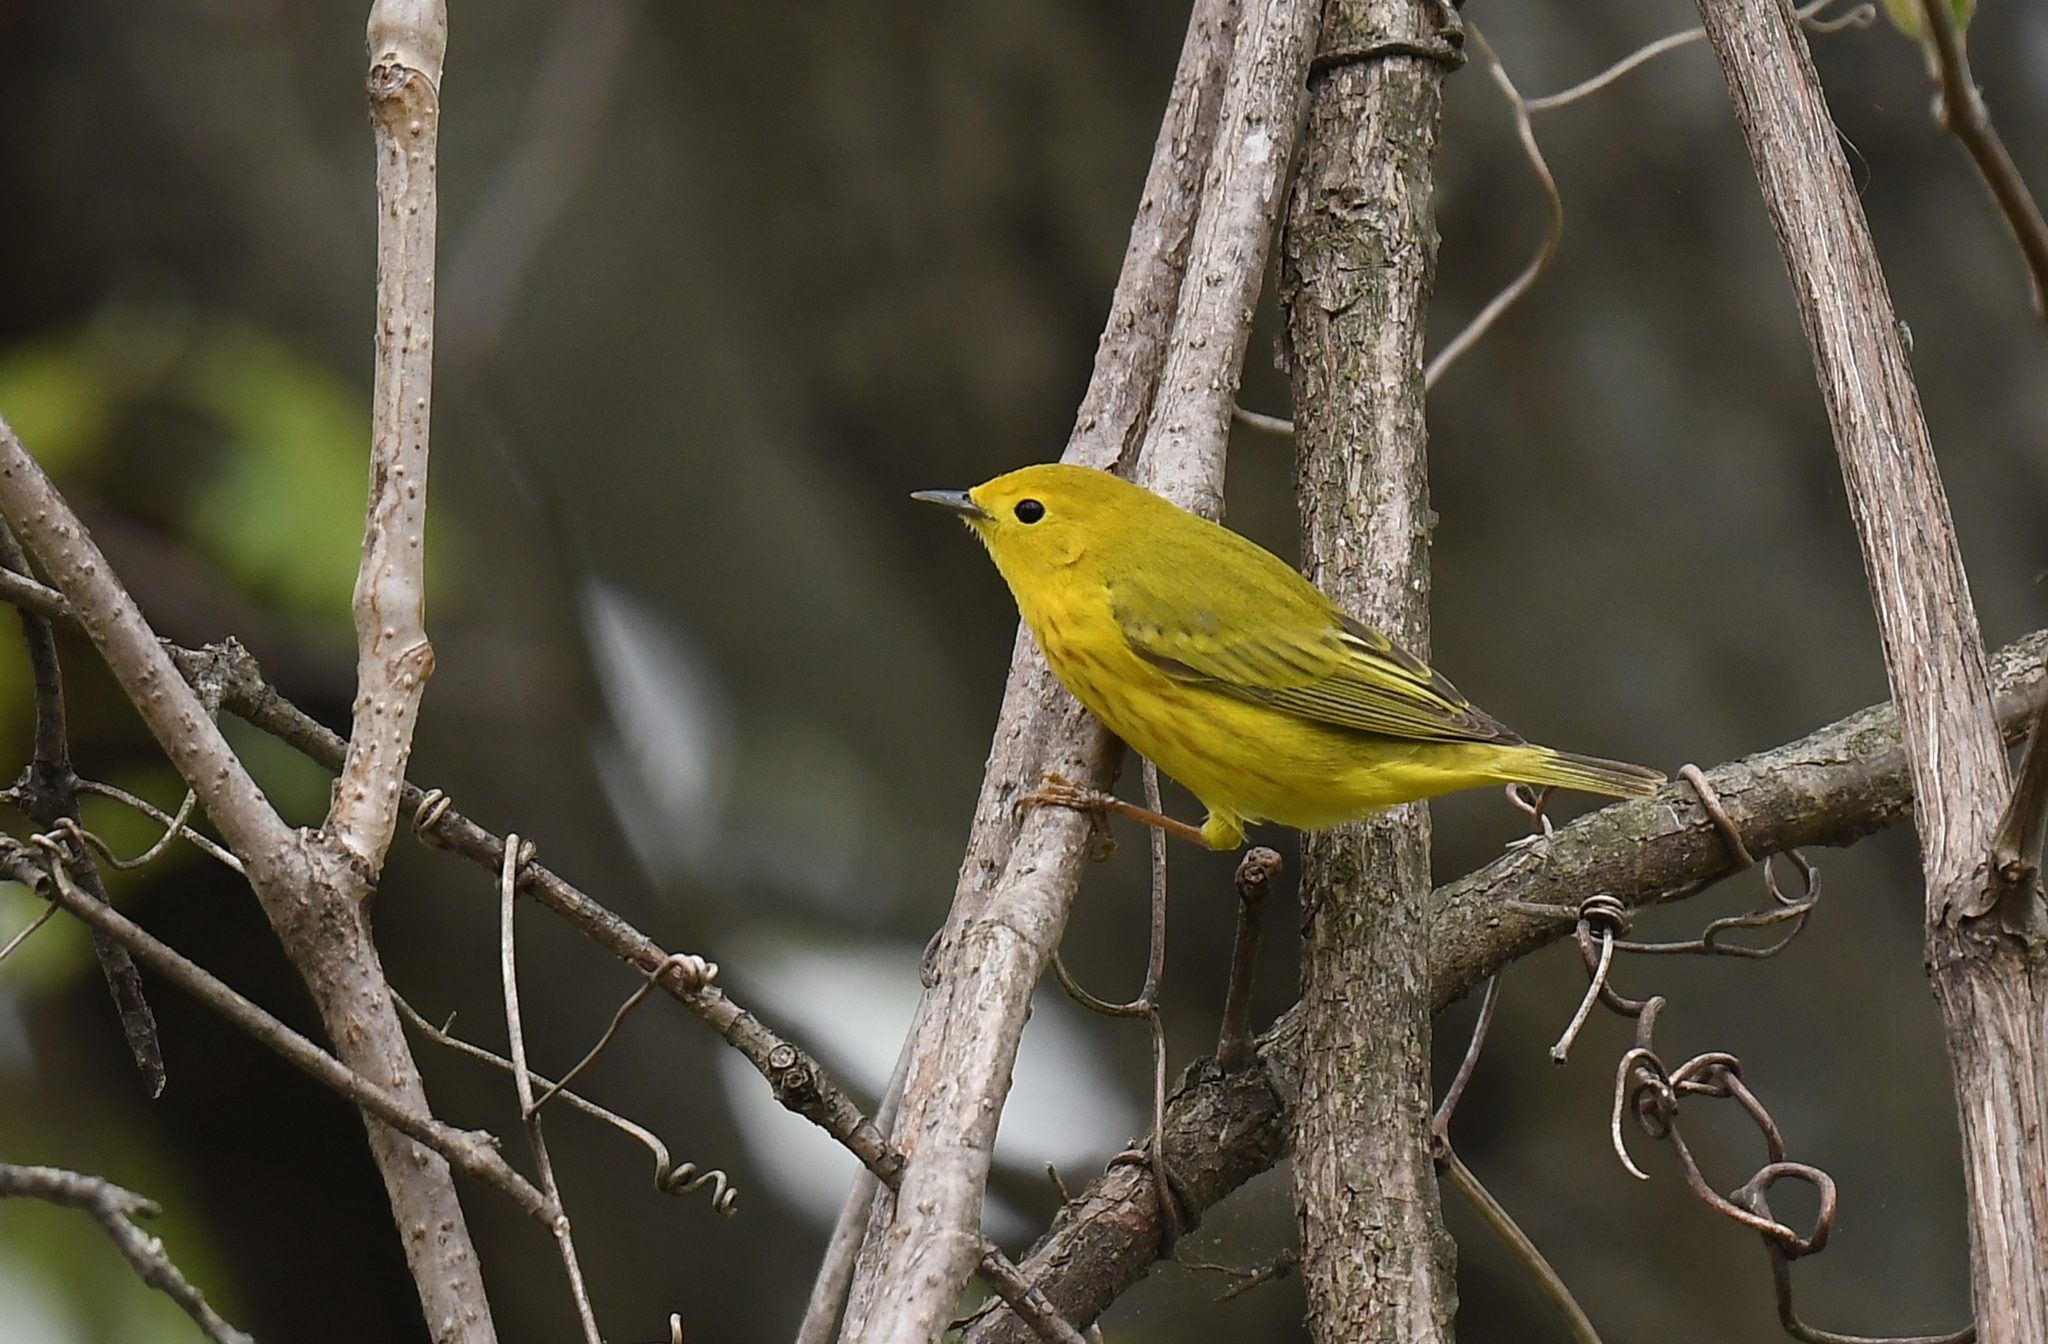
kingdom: Animalia
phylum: Chordata
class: Aves
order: Passeriformes
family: Parulidae
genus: Setophaga
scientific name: Setophaga petechia
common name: Yellow warbler
